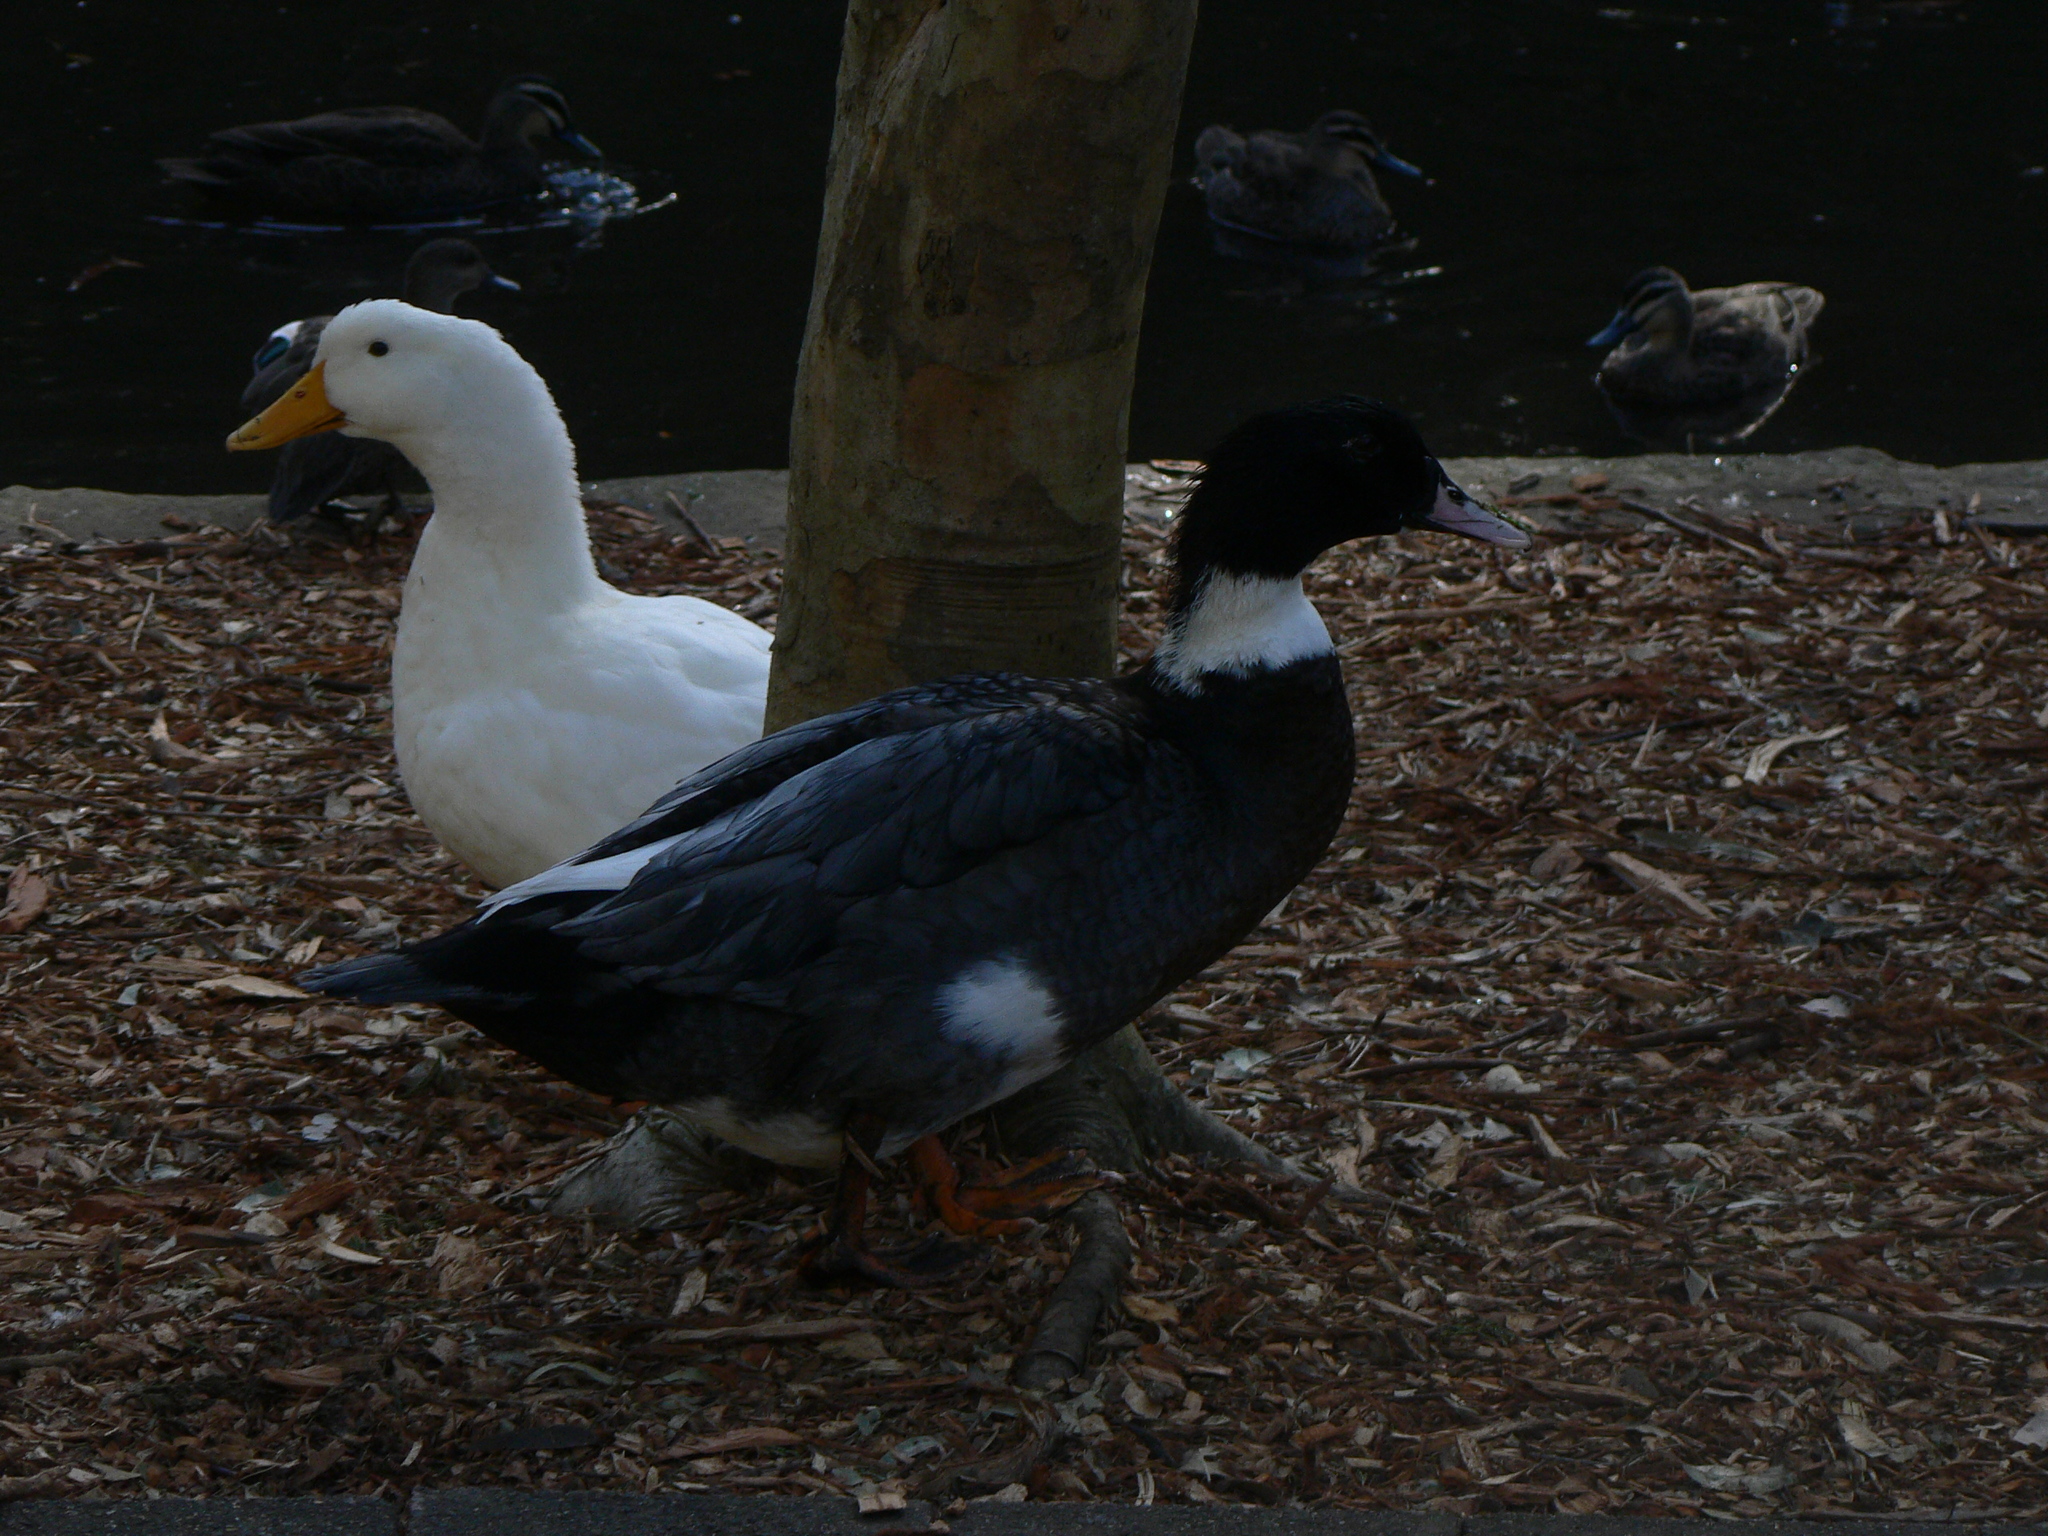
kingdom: Animalia
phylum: Chordata
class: Aves
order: Anseriformes
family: Anatidae
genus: Anas
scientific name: Anas platyrhynchos
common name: Mallard
